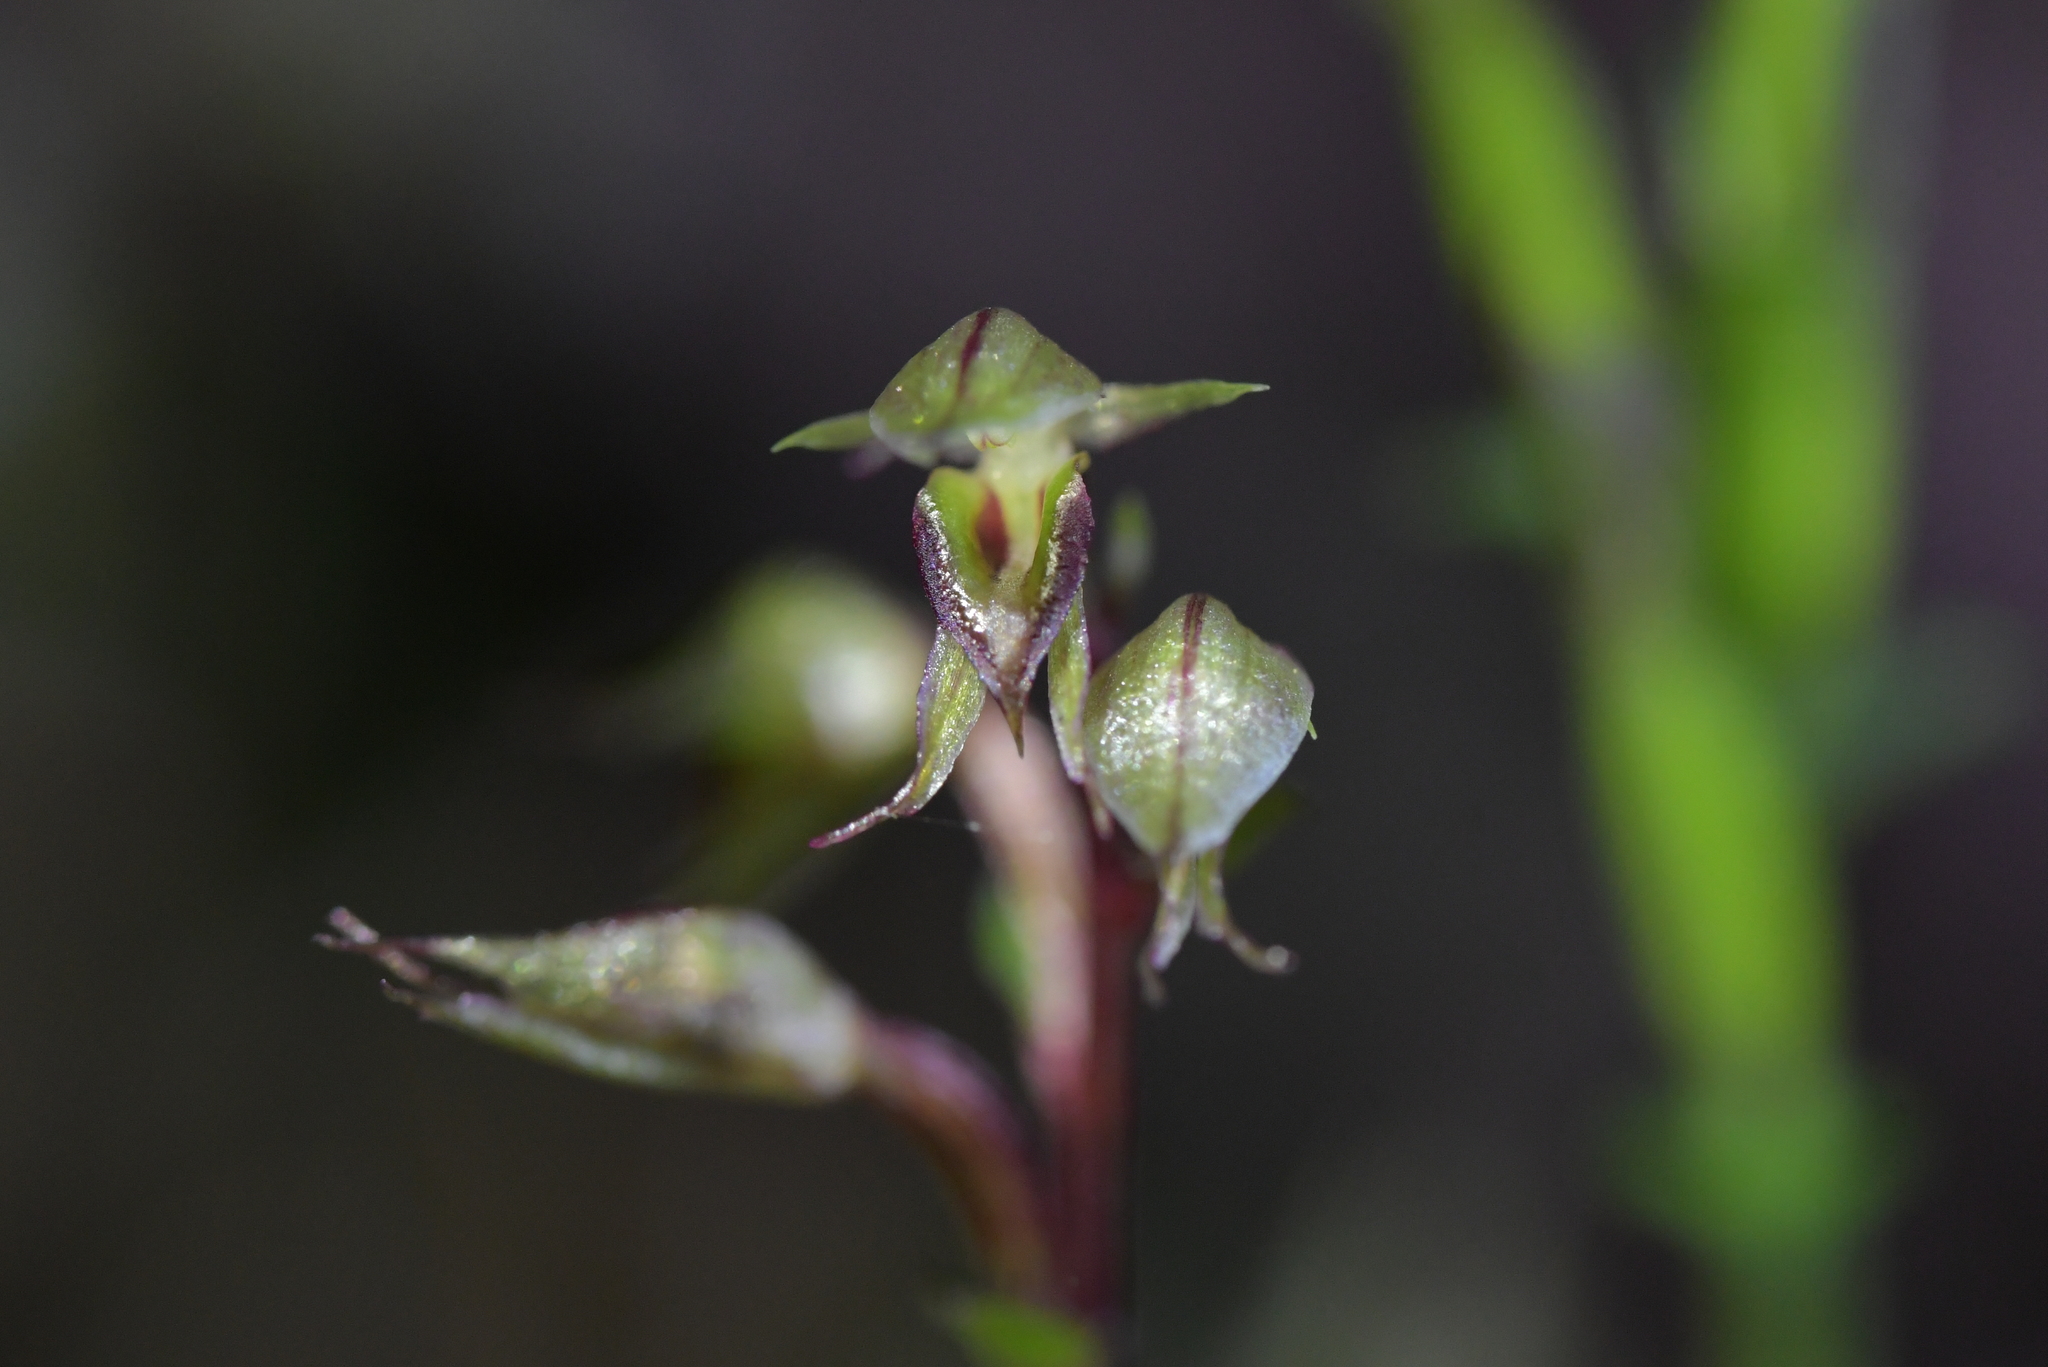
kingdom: Plantae
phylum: Tracheophyta
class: Liliopsida
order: Asparagales
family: Orchidaceae
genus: Acianthus
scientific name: Acianthus sinclairii
